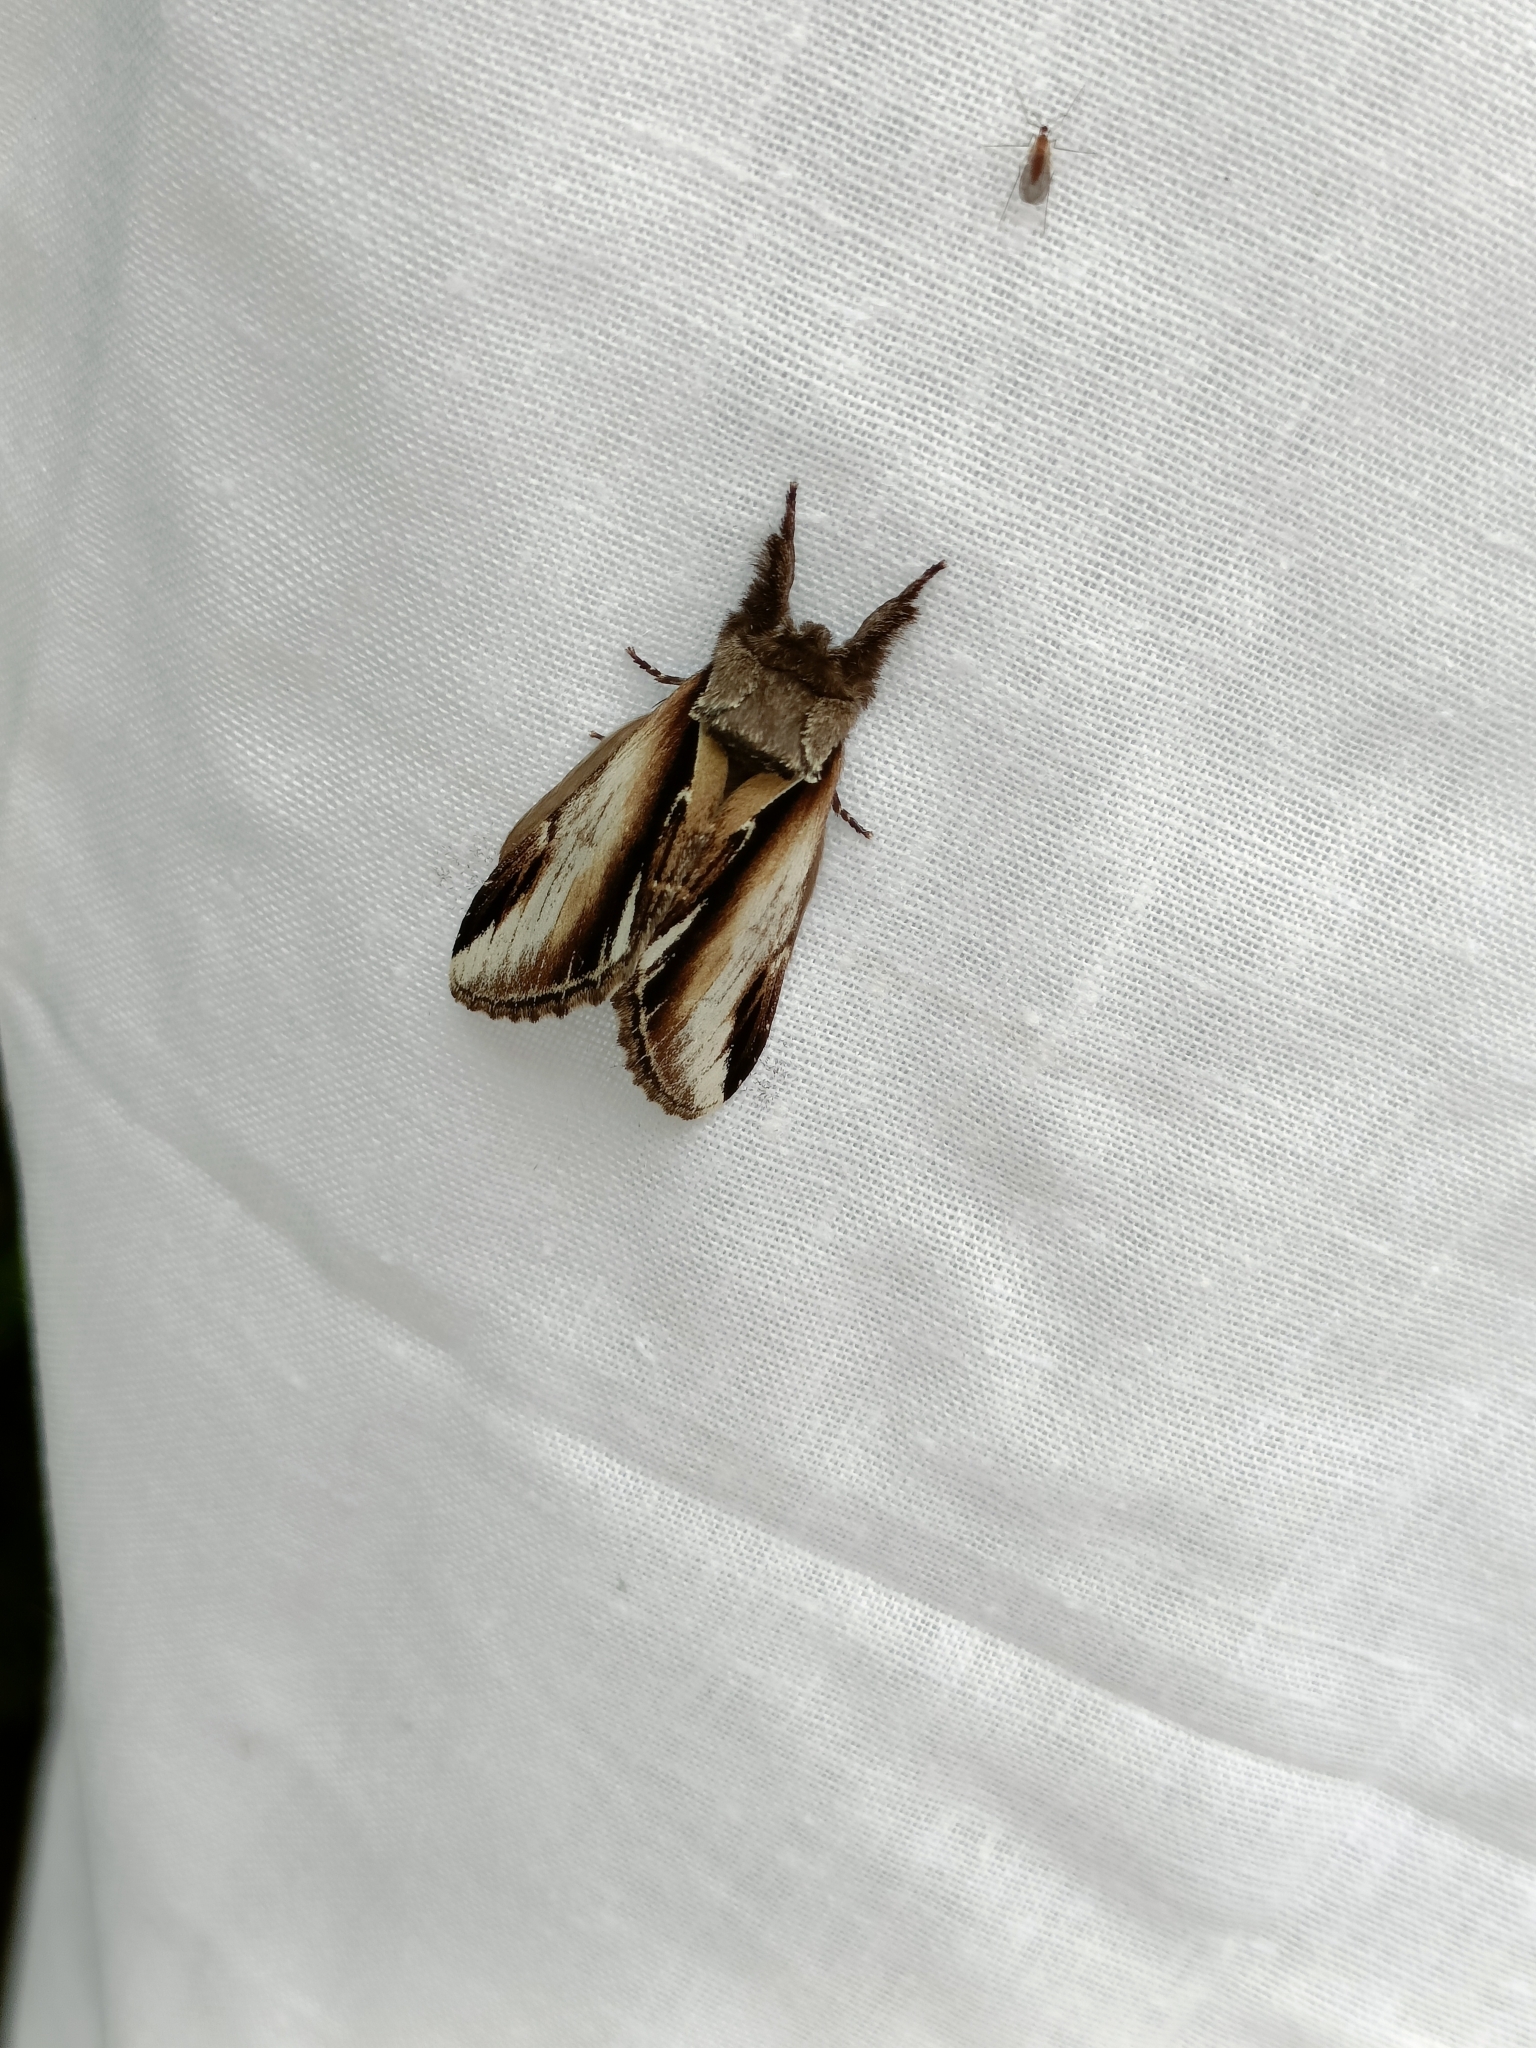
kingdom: Animalia
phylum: Arthropoda
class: Insecta
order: Lepidoptera
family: Notodontidae
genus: Pheosia
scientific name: Pheosia gnoma
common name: Lesser swallow prominent
